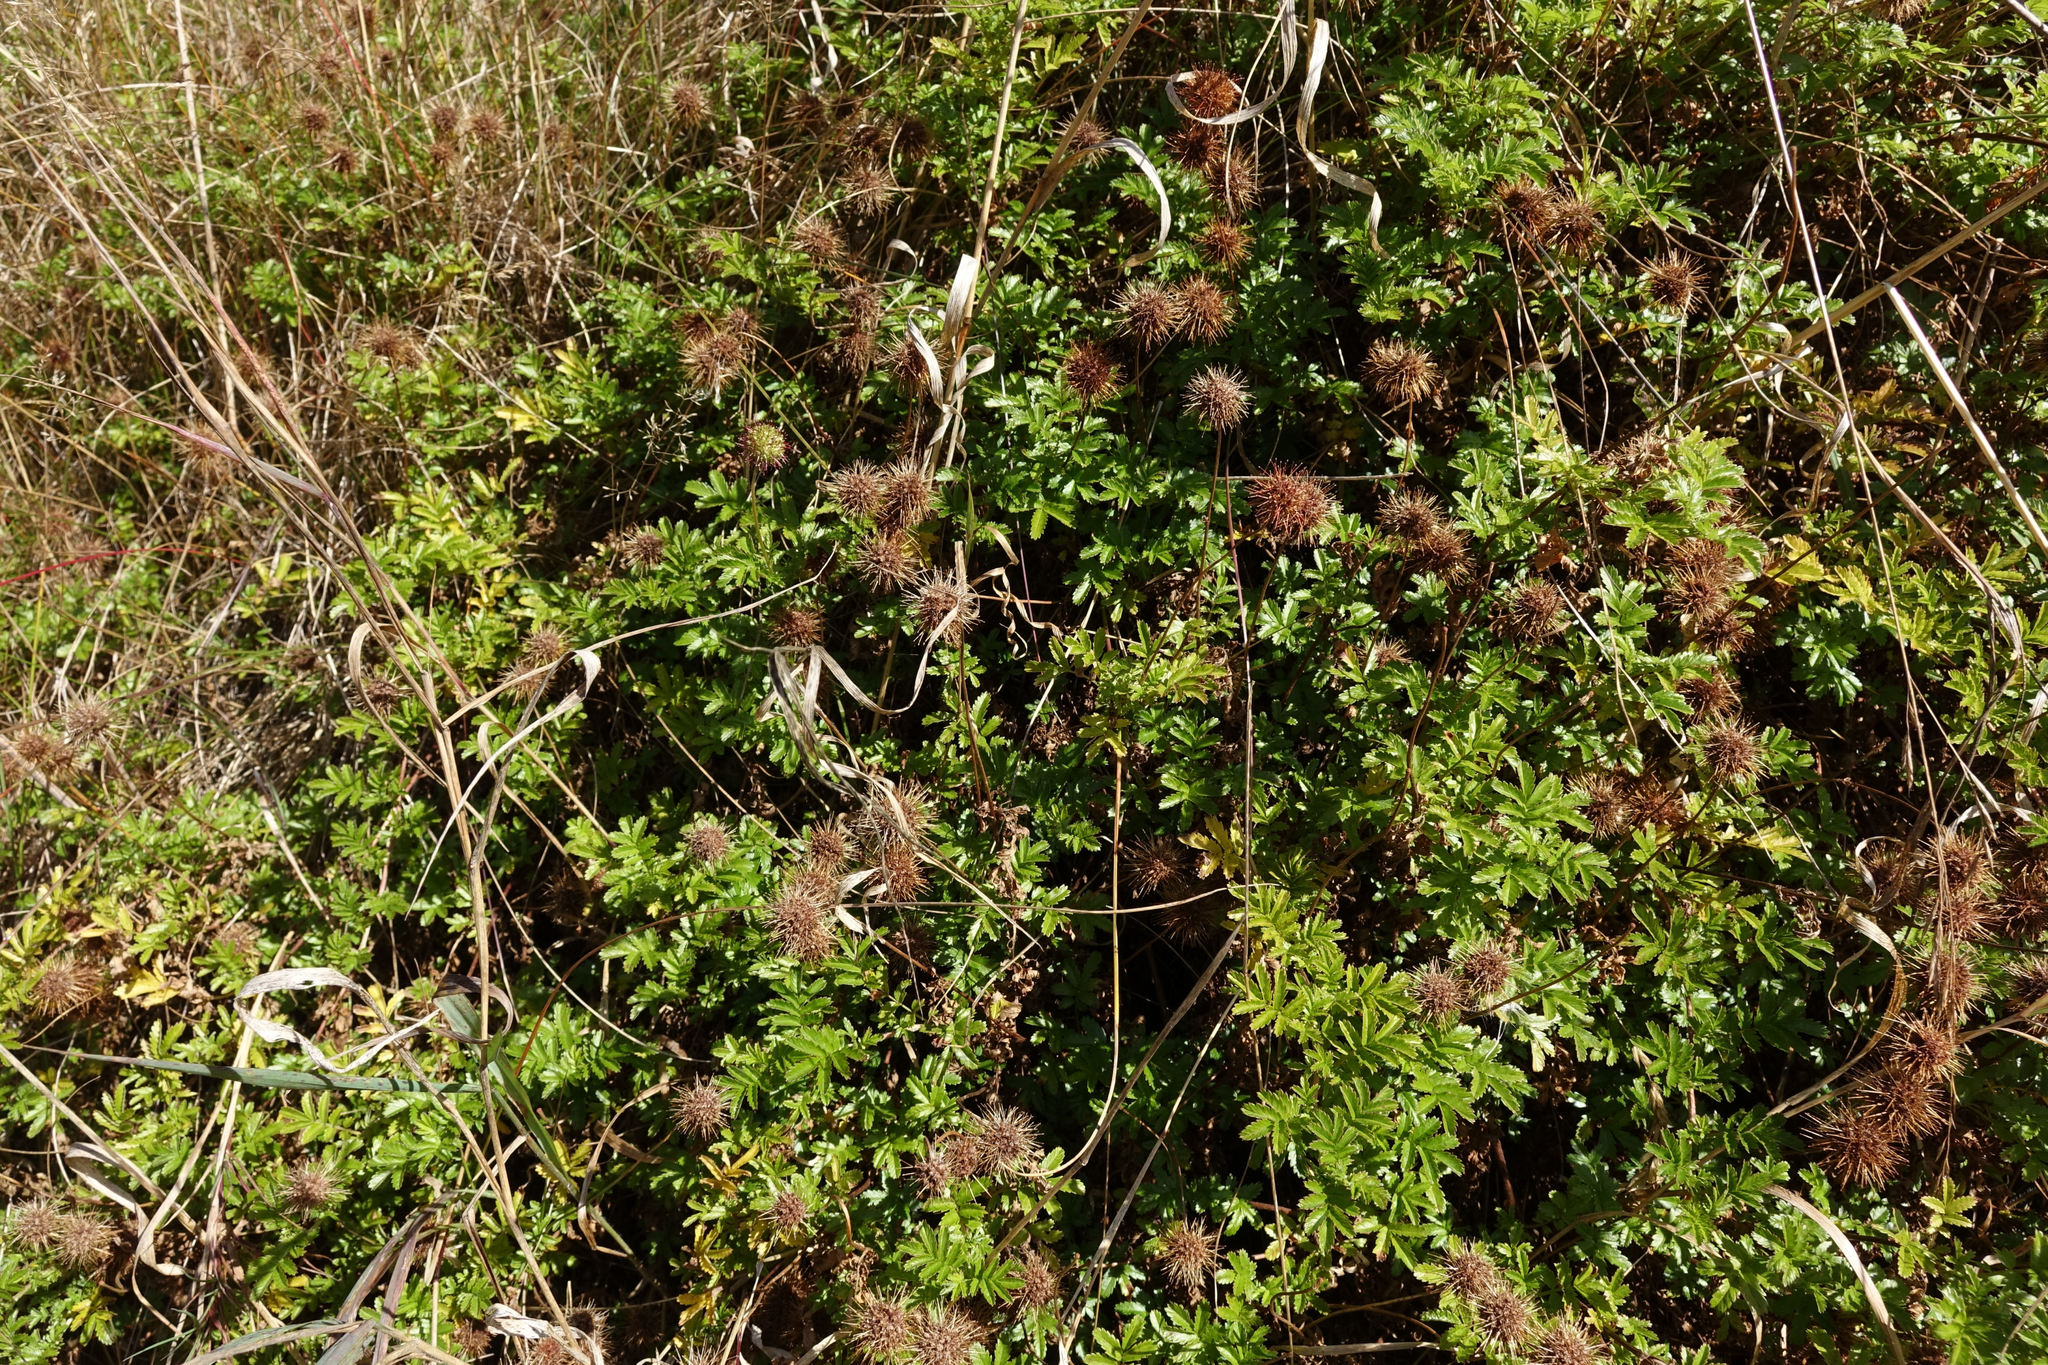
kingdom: Plantae
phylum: Tracheophyta
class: Magnoliopsida
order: Rosales
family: Rosaceae
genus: Acaena
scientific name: Acaena novae-zelandiae
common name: Pirri-pirri-bur
